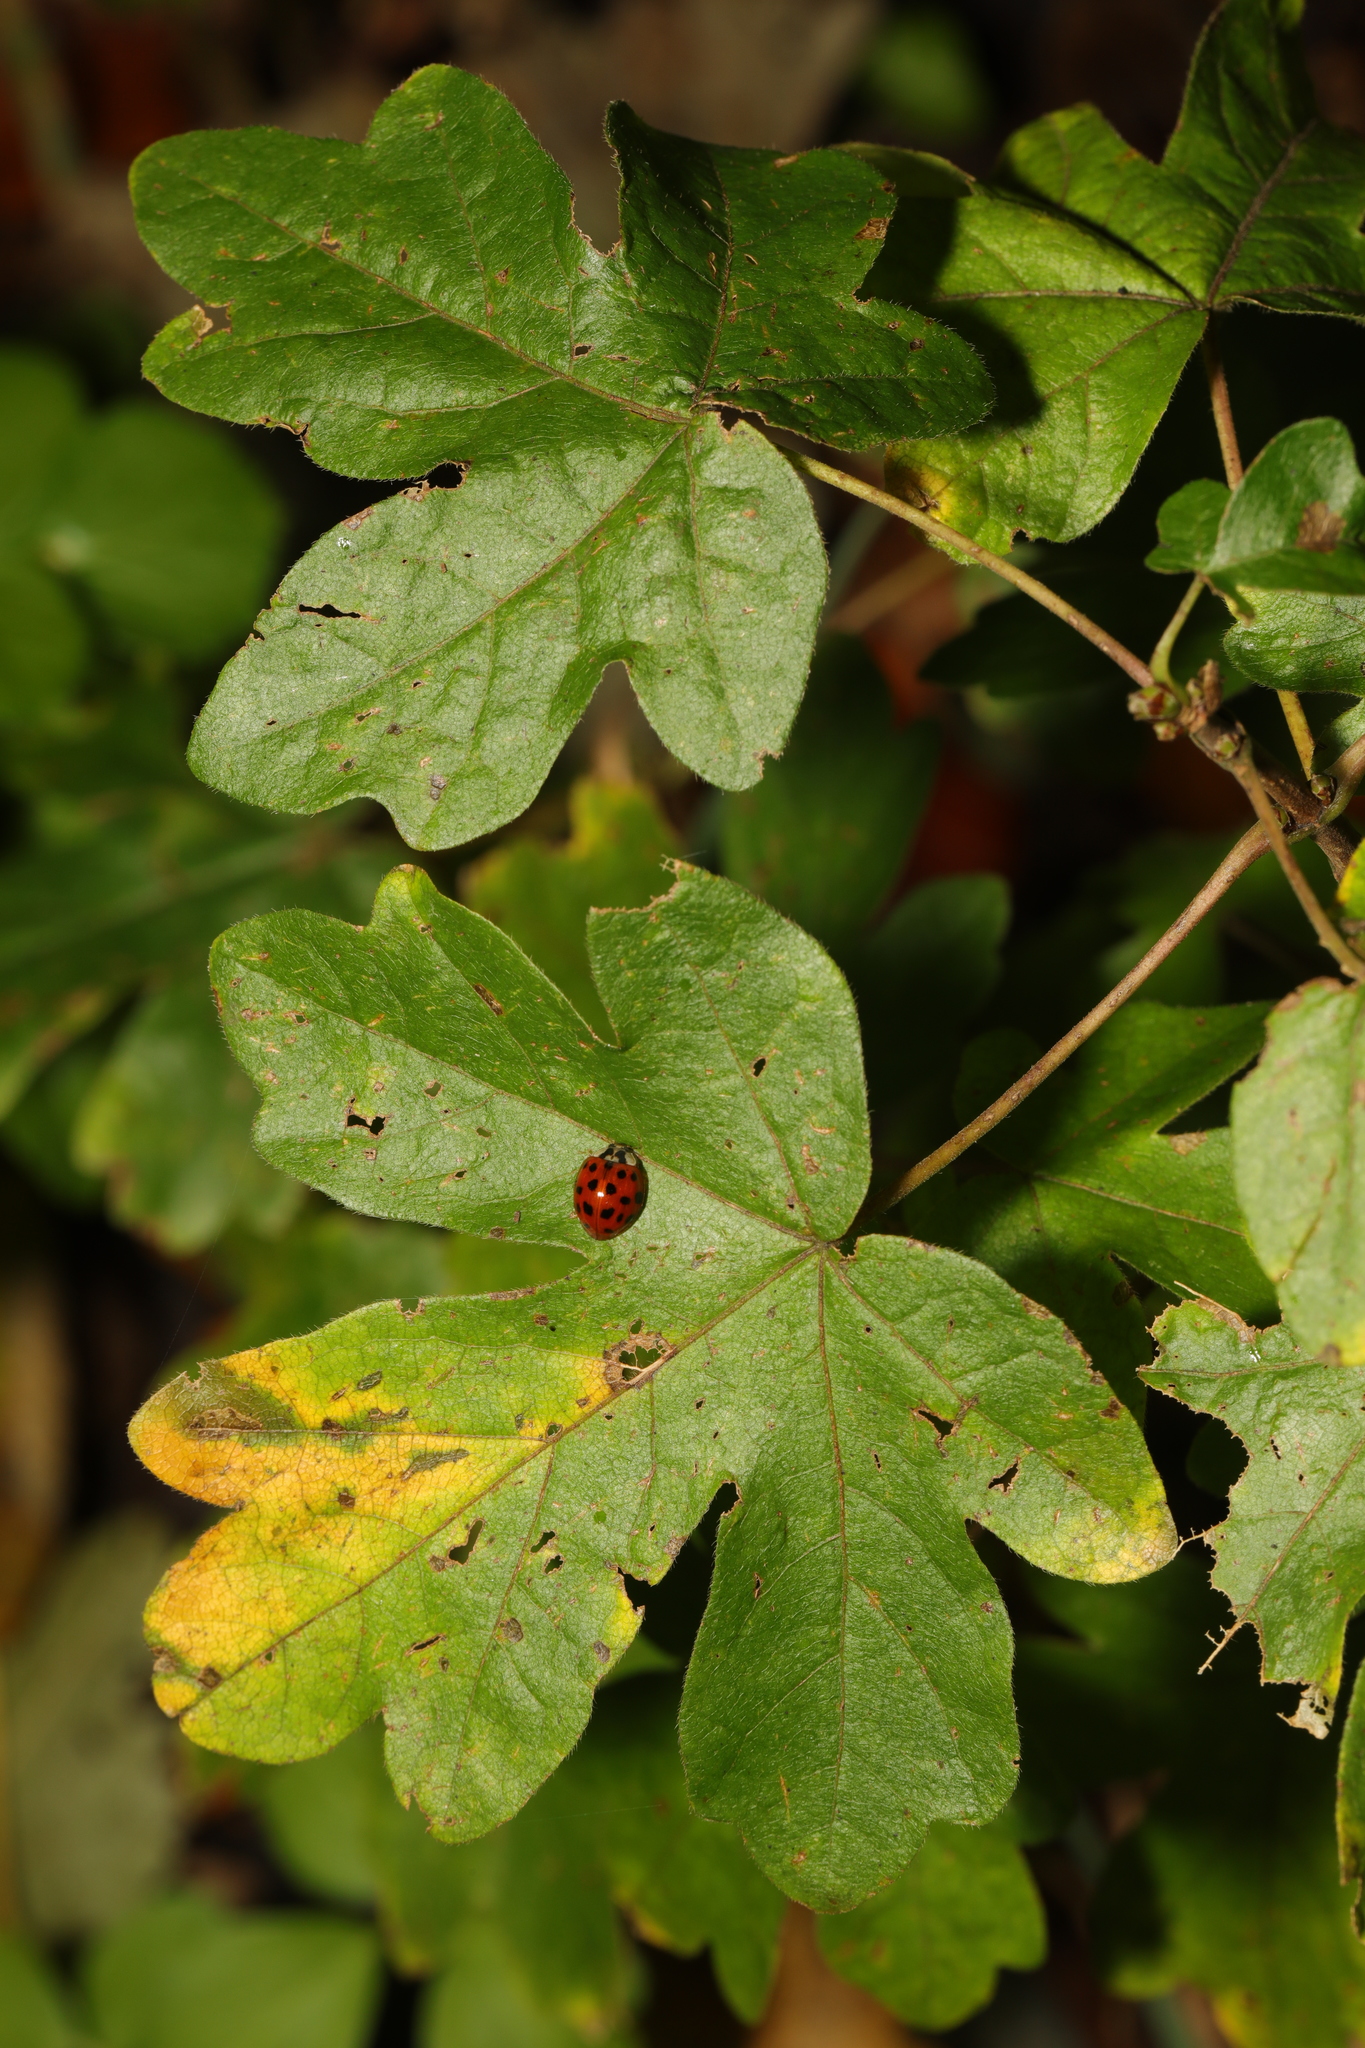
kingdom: Plantae
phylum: Tracheophyta
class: Magnoliopsida
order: Sapindales
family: Sapindaceae
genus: Acer
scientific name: Acer campestre
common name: Field maple
